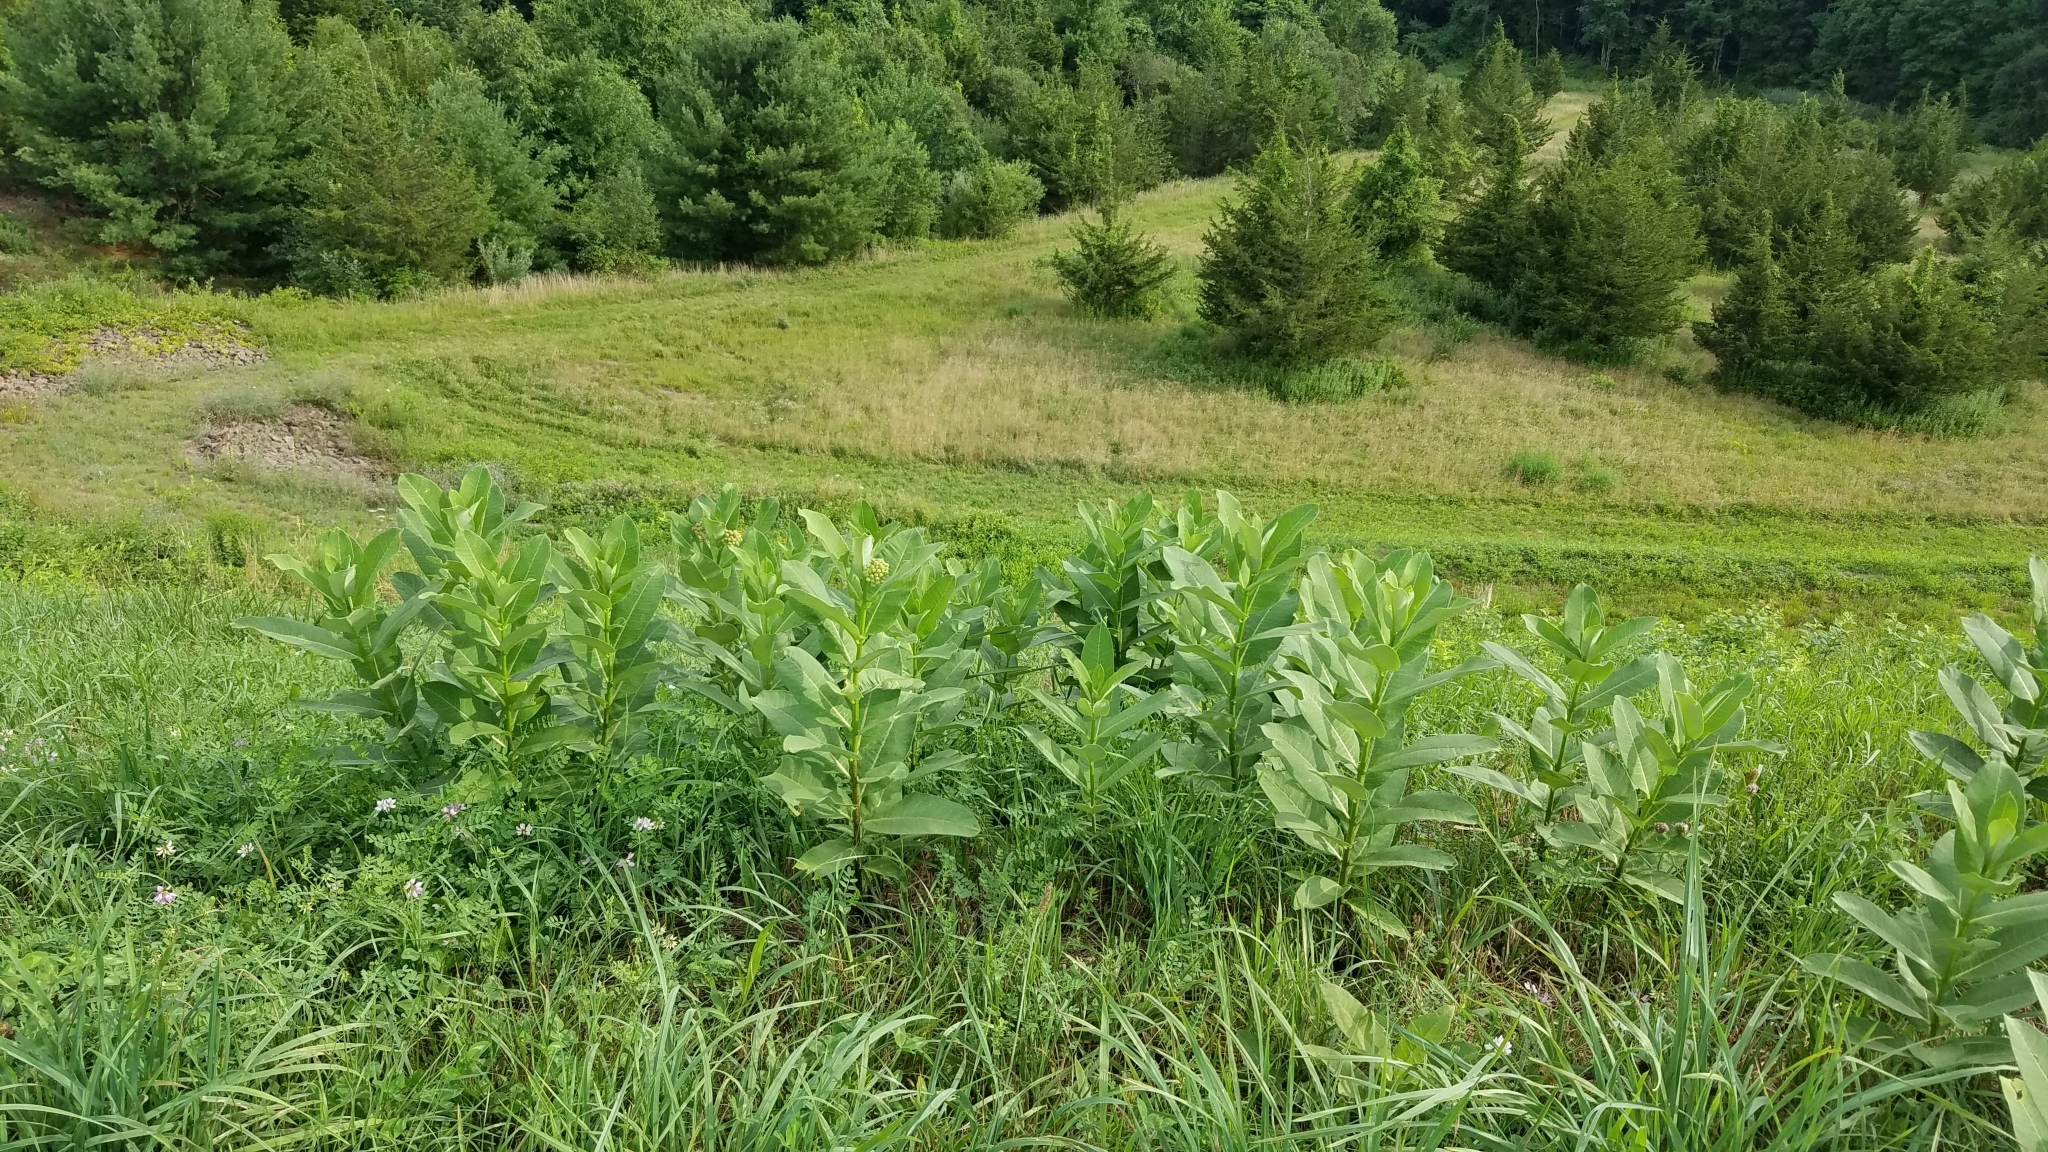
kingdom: Plantae
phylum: Tracheophyta
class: Magnoliopsida
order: Gentianales
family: Apocynaceae
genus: Asclepias
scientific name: Asclepias syriaca
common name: Common milkweed
